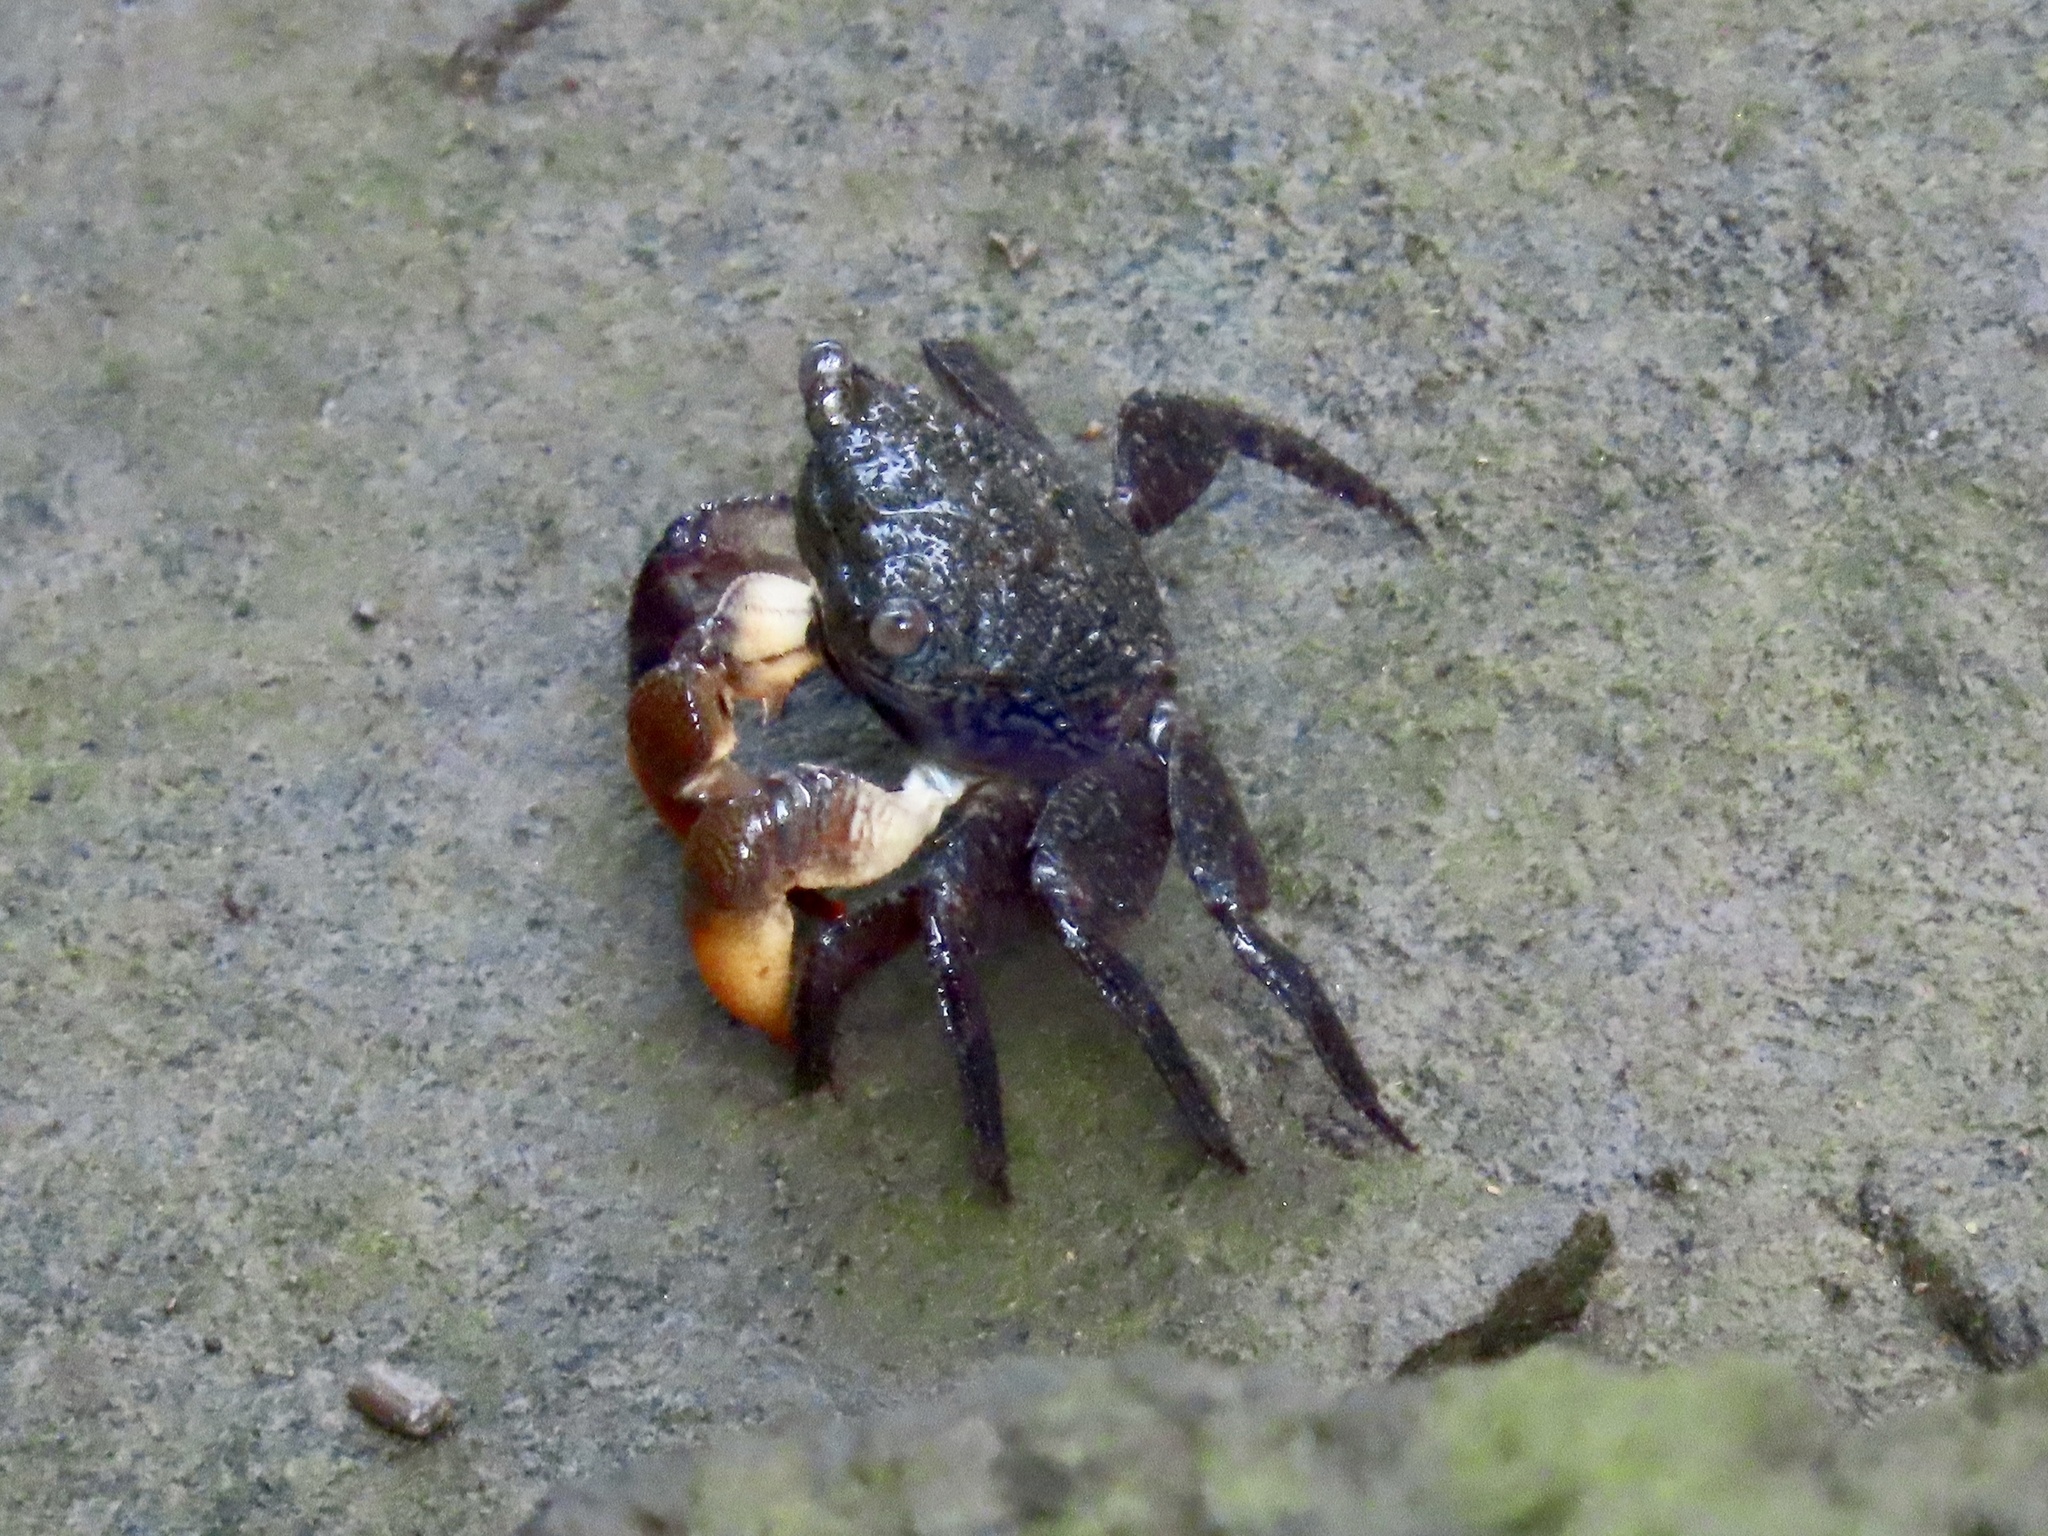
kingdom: Animalia
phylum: Arthropoda
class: Malacostraca
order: Decapoda
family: Sesarmidae
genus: Parasesarma
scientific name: Parasesarma continentale
